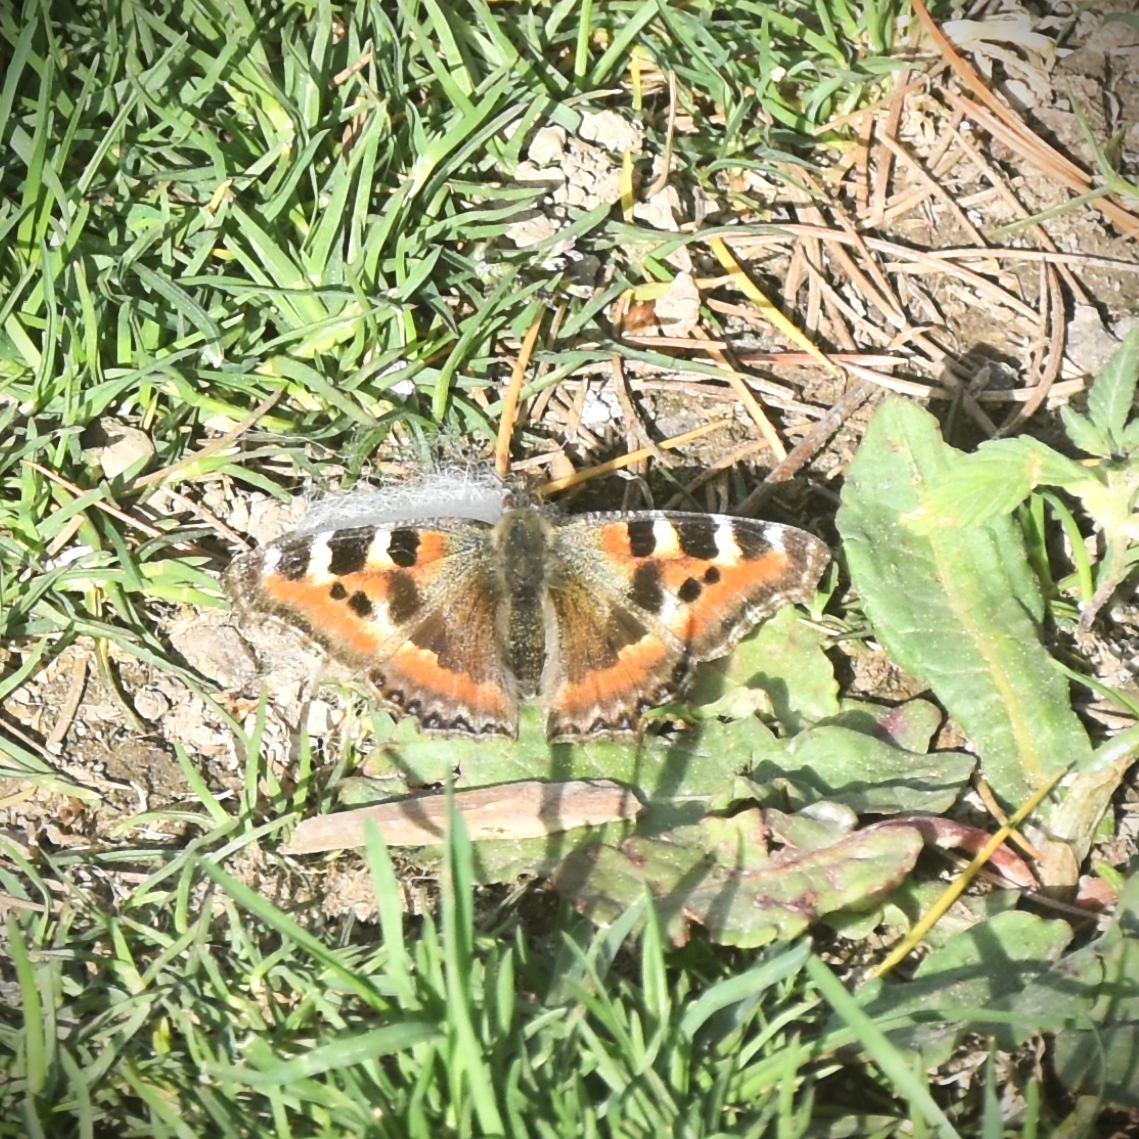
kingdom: Animalia
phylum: Arthropoda
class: Insecta
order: Lepidoptera
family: Nymphalidae
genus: Aglais
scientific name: Aglais caschmirensis
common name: Indian tortoiseshell
